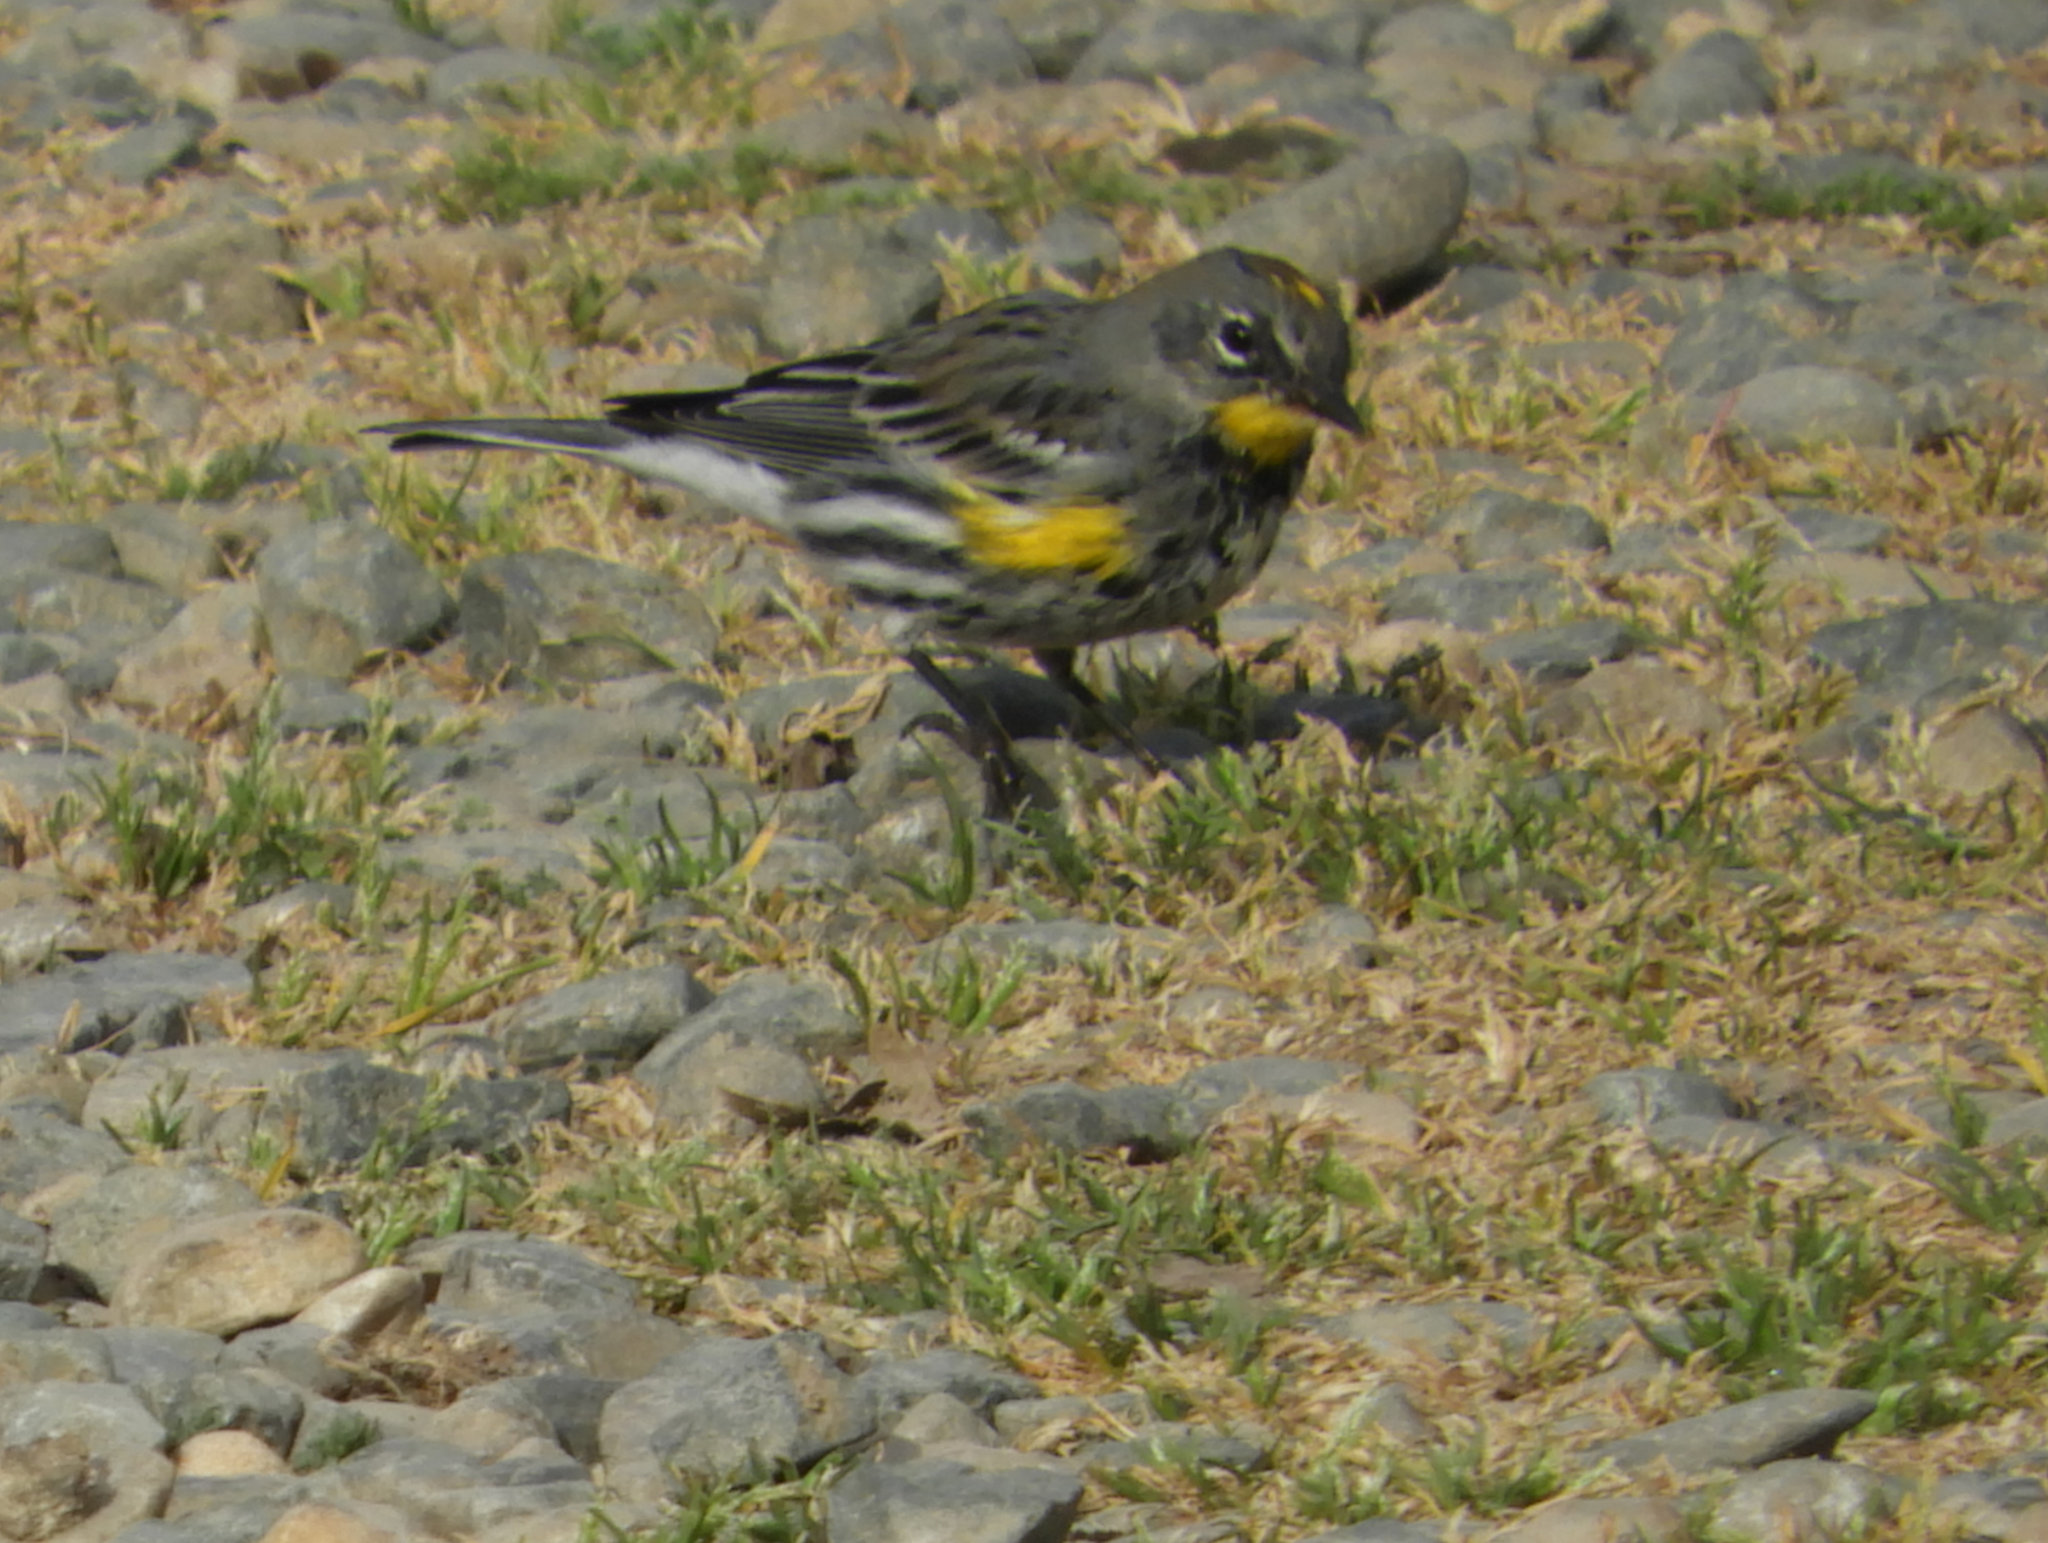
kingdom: Animalia
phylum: Chordata
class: Aves
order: Passeriformes
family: Parulidae
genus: Setophaga
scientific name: Setophaga auduboni
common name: Audubon's warbler
